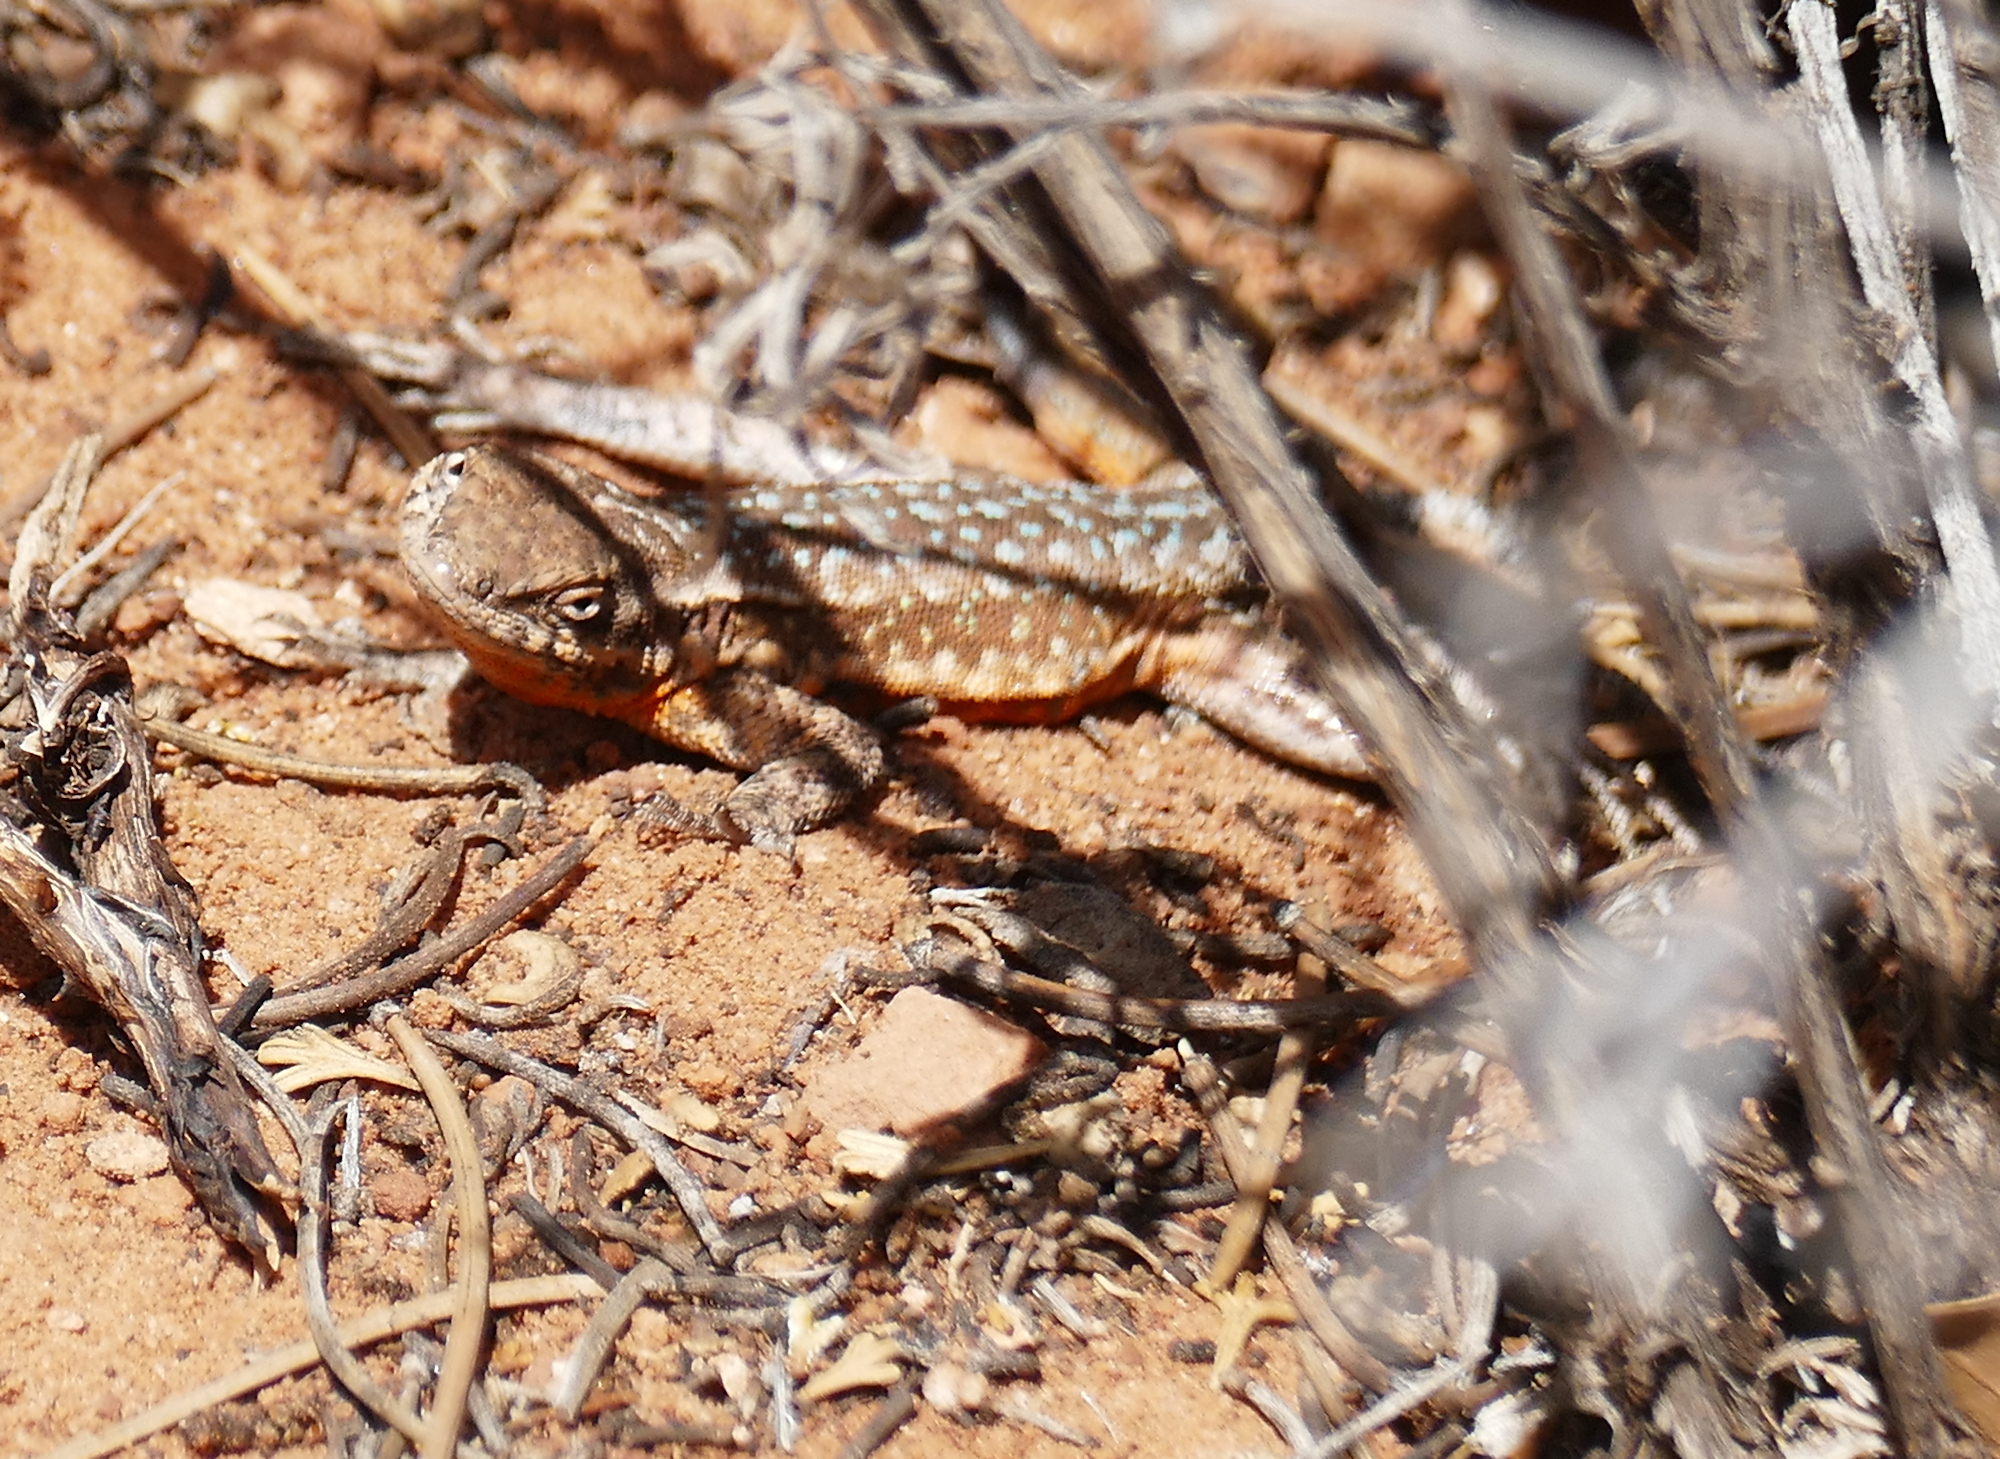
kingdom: Animalia
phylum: Chordata
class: Squamata
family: Phrynosomatidae
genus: Uta
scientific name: Uta stansburiana
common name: Side-blotched lizard
